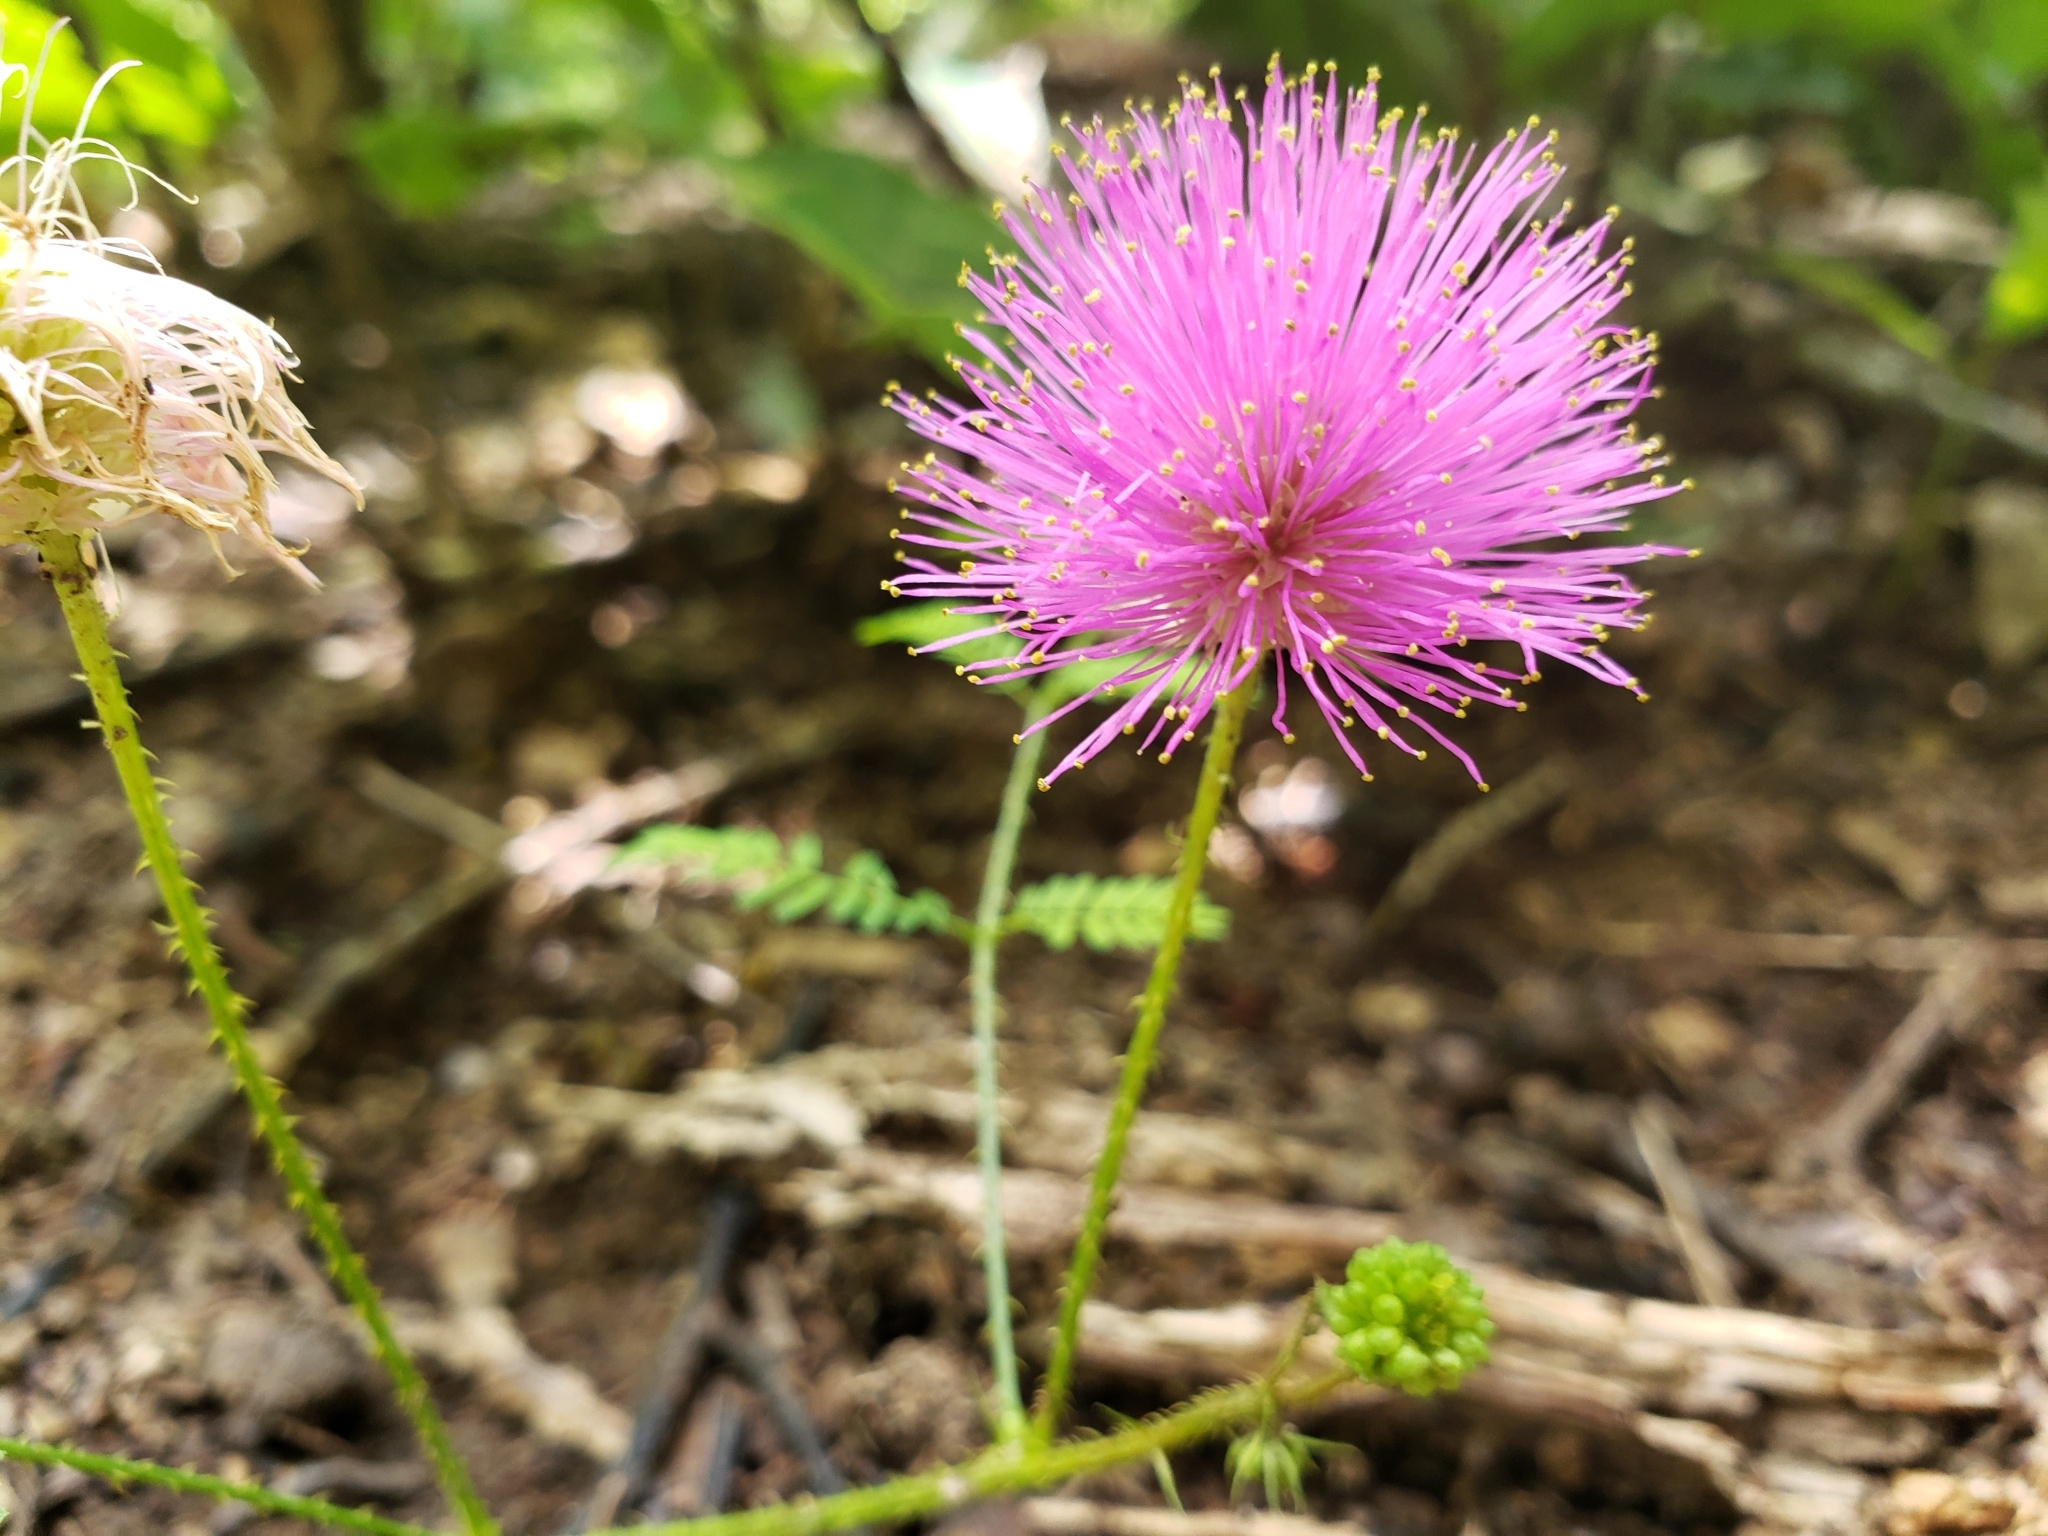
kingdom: Plantae
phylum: Tracheophyta
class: Magnoliopsida
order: Fabales
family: Fabaceae
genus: Mimosa
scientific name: Mimosa quadrivalvis
